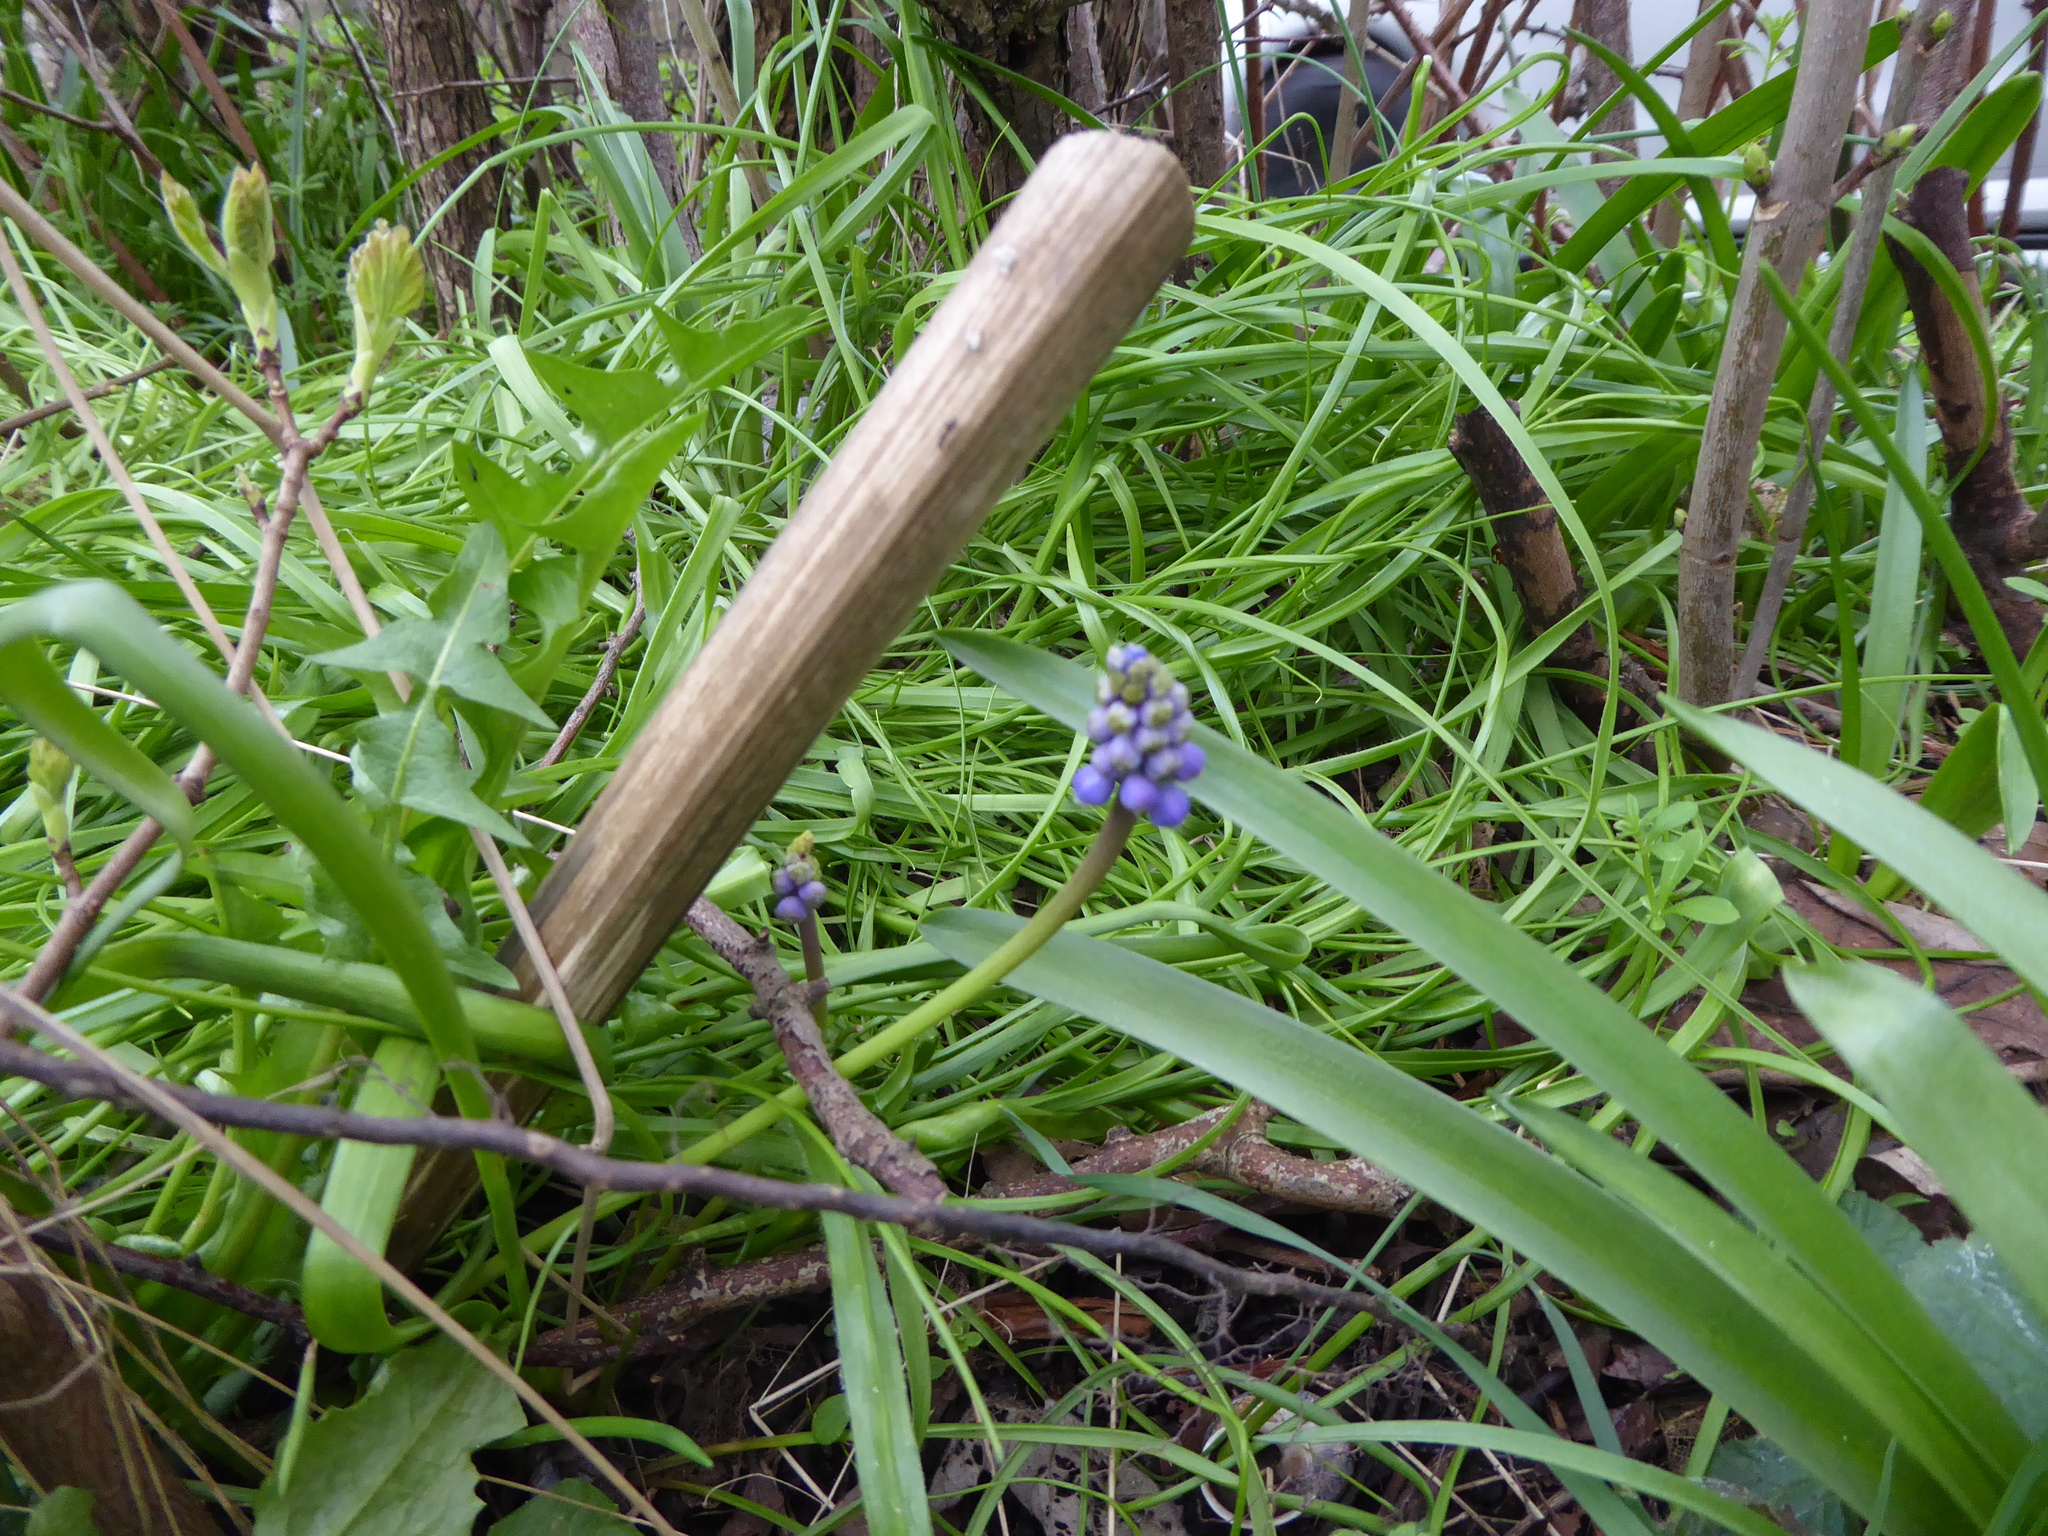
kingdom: Plantae
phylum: Tracheophyta
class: Liliopsida
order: Asparagales
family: Asparagaceae
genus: Muscari
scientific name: Muscari armeniacum
